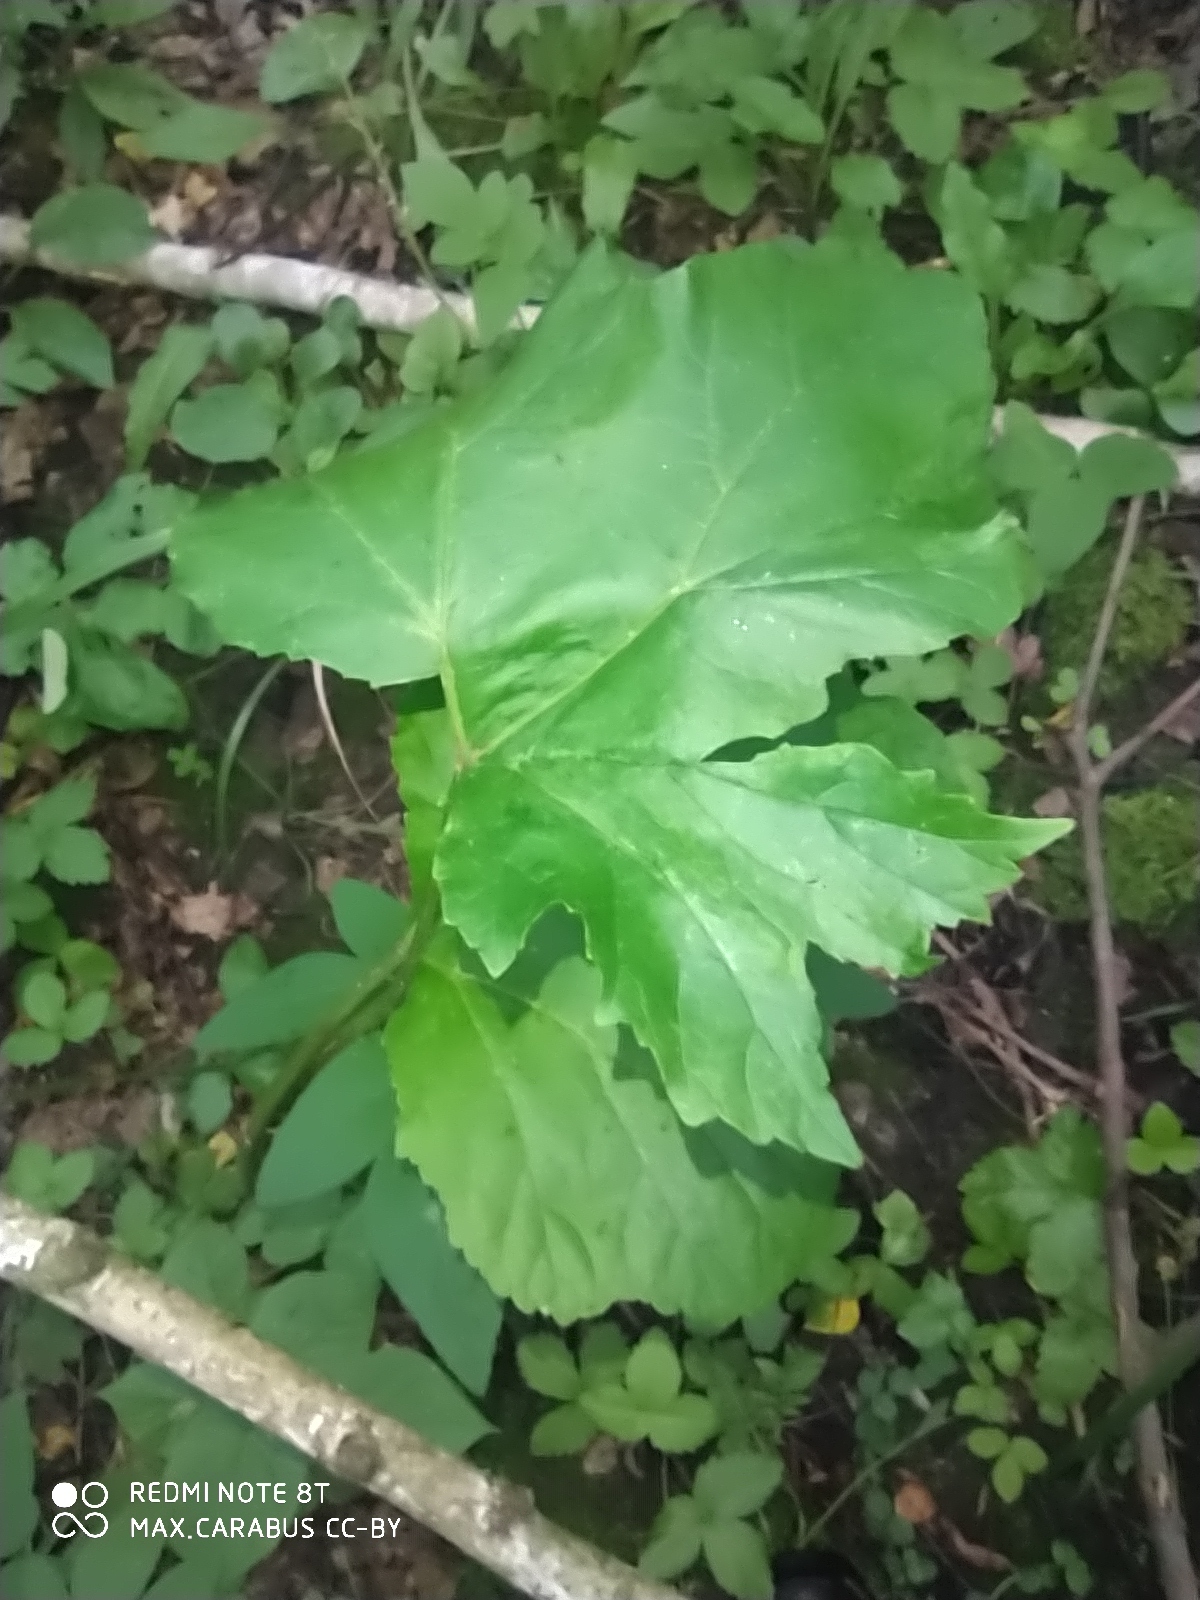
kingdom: Plantae
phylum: Tracheophyta
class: Magnoliopsida
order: Apiales
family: Apiaceae
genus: Heracleum
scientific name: Heracleum sosnowskyi
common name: Sosnowsky's hogweed
